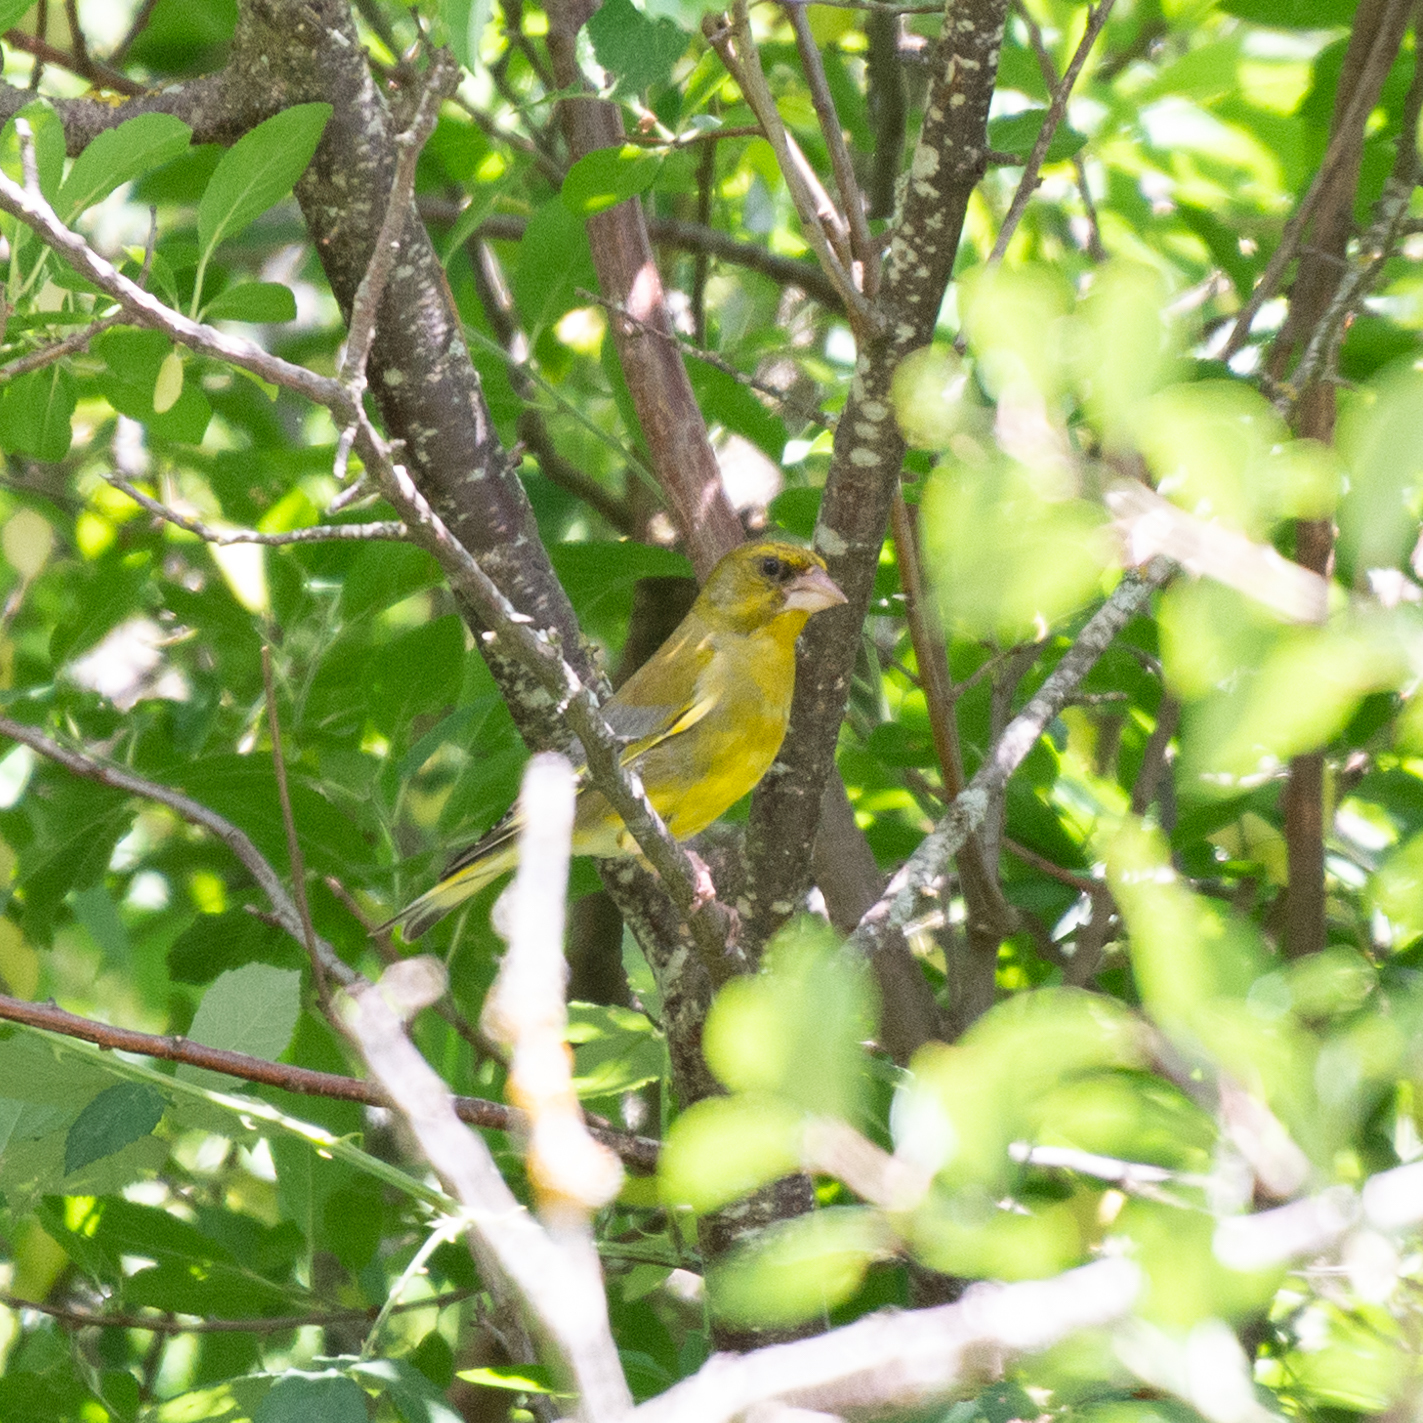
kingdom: Plantae
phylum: Tracheophyta
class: Liliopsida
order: Poales
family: Poaceae
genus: Chloris
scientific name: Chloris chloris
